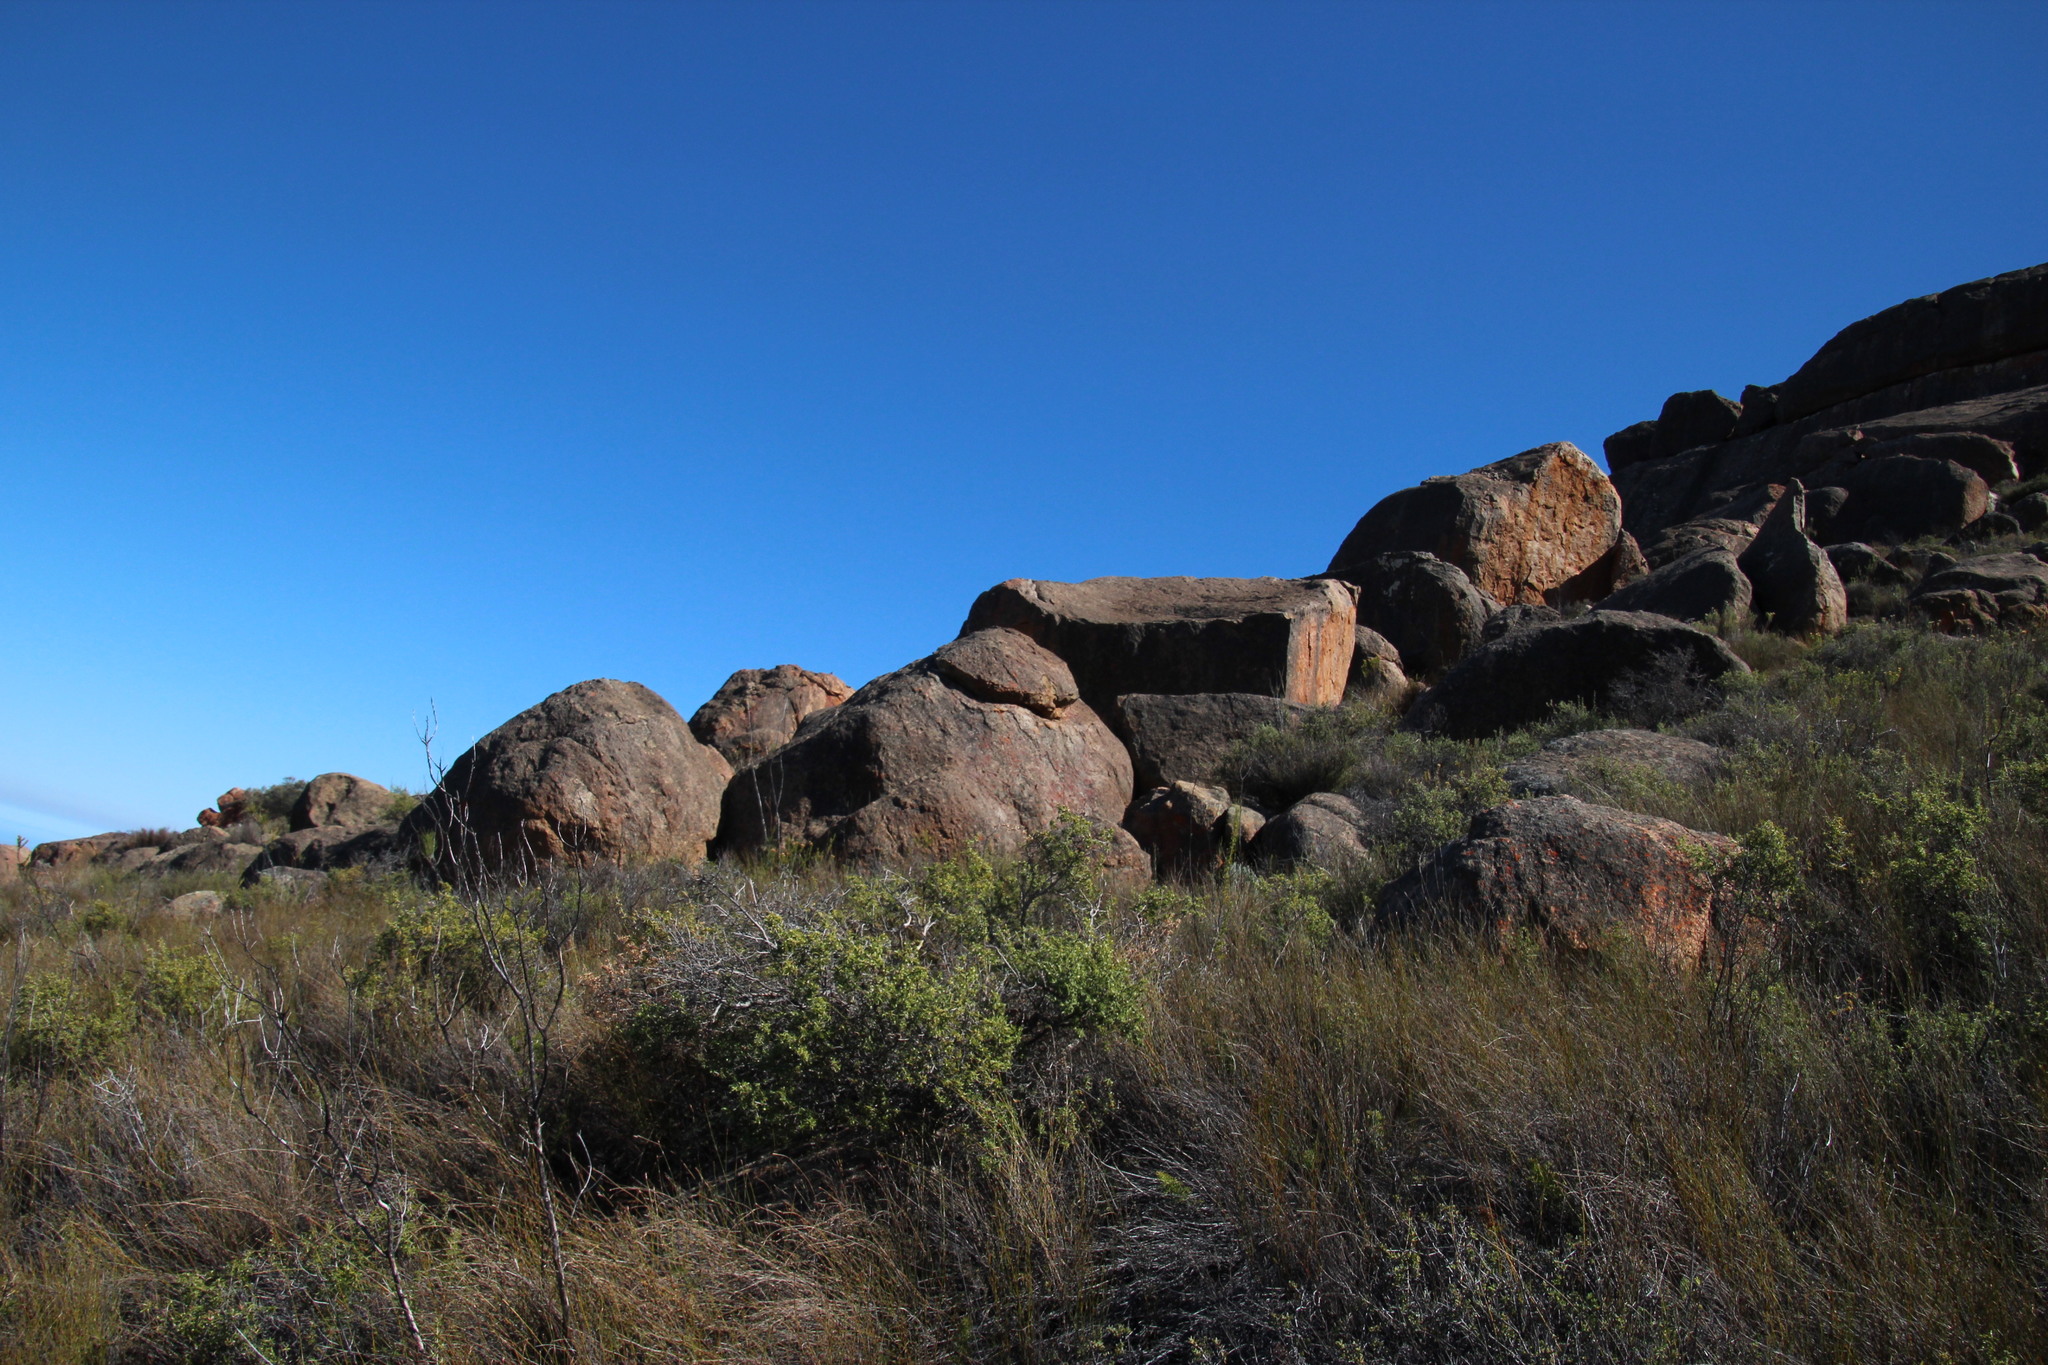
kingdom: Plantae
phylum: Tracheophyta
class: Magnoliopsida
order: Rosales
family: Rosaceae
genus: Cliffortia
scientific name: Cliffortia ruscifolia
